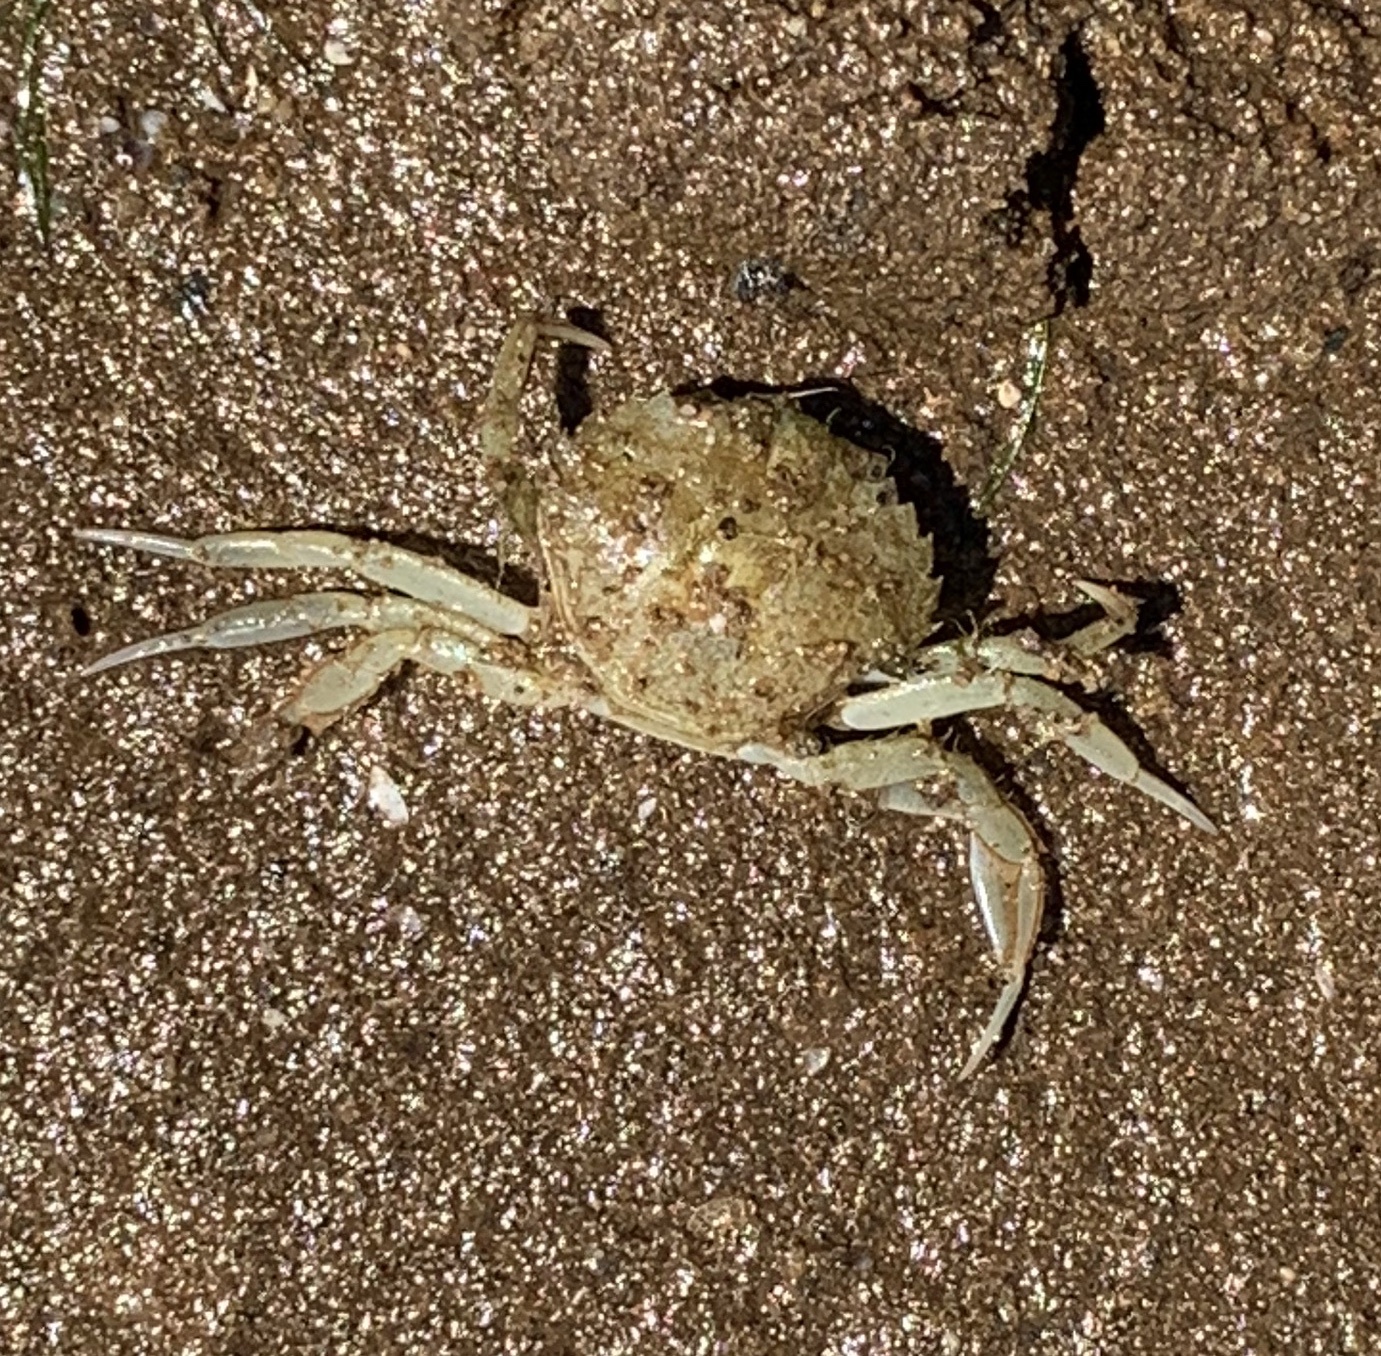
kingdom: Animalia
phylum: Arthropoda
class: Malacostraca
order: Decapoda
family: Carcinidae
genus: Carcinus
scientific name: Carcinus maenas
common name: European green crab
